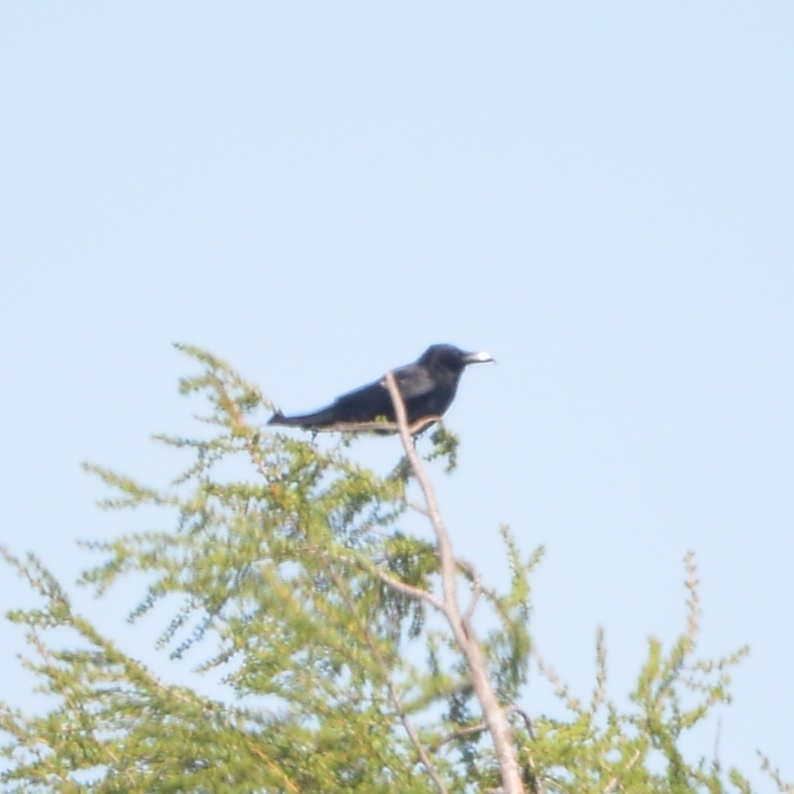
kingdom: Animalia
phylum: Chordata
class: Aves
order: Passeriformes
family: Corvidae
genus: Corvus
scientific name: Corvus macrorhynchos
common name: Large-billed crow
